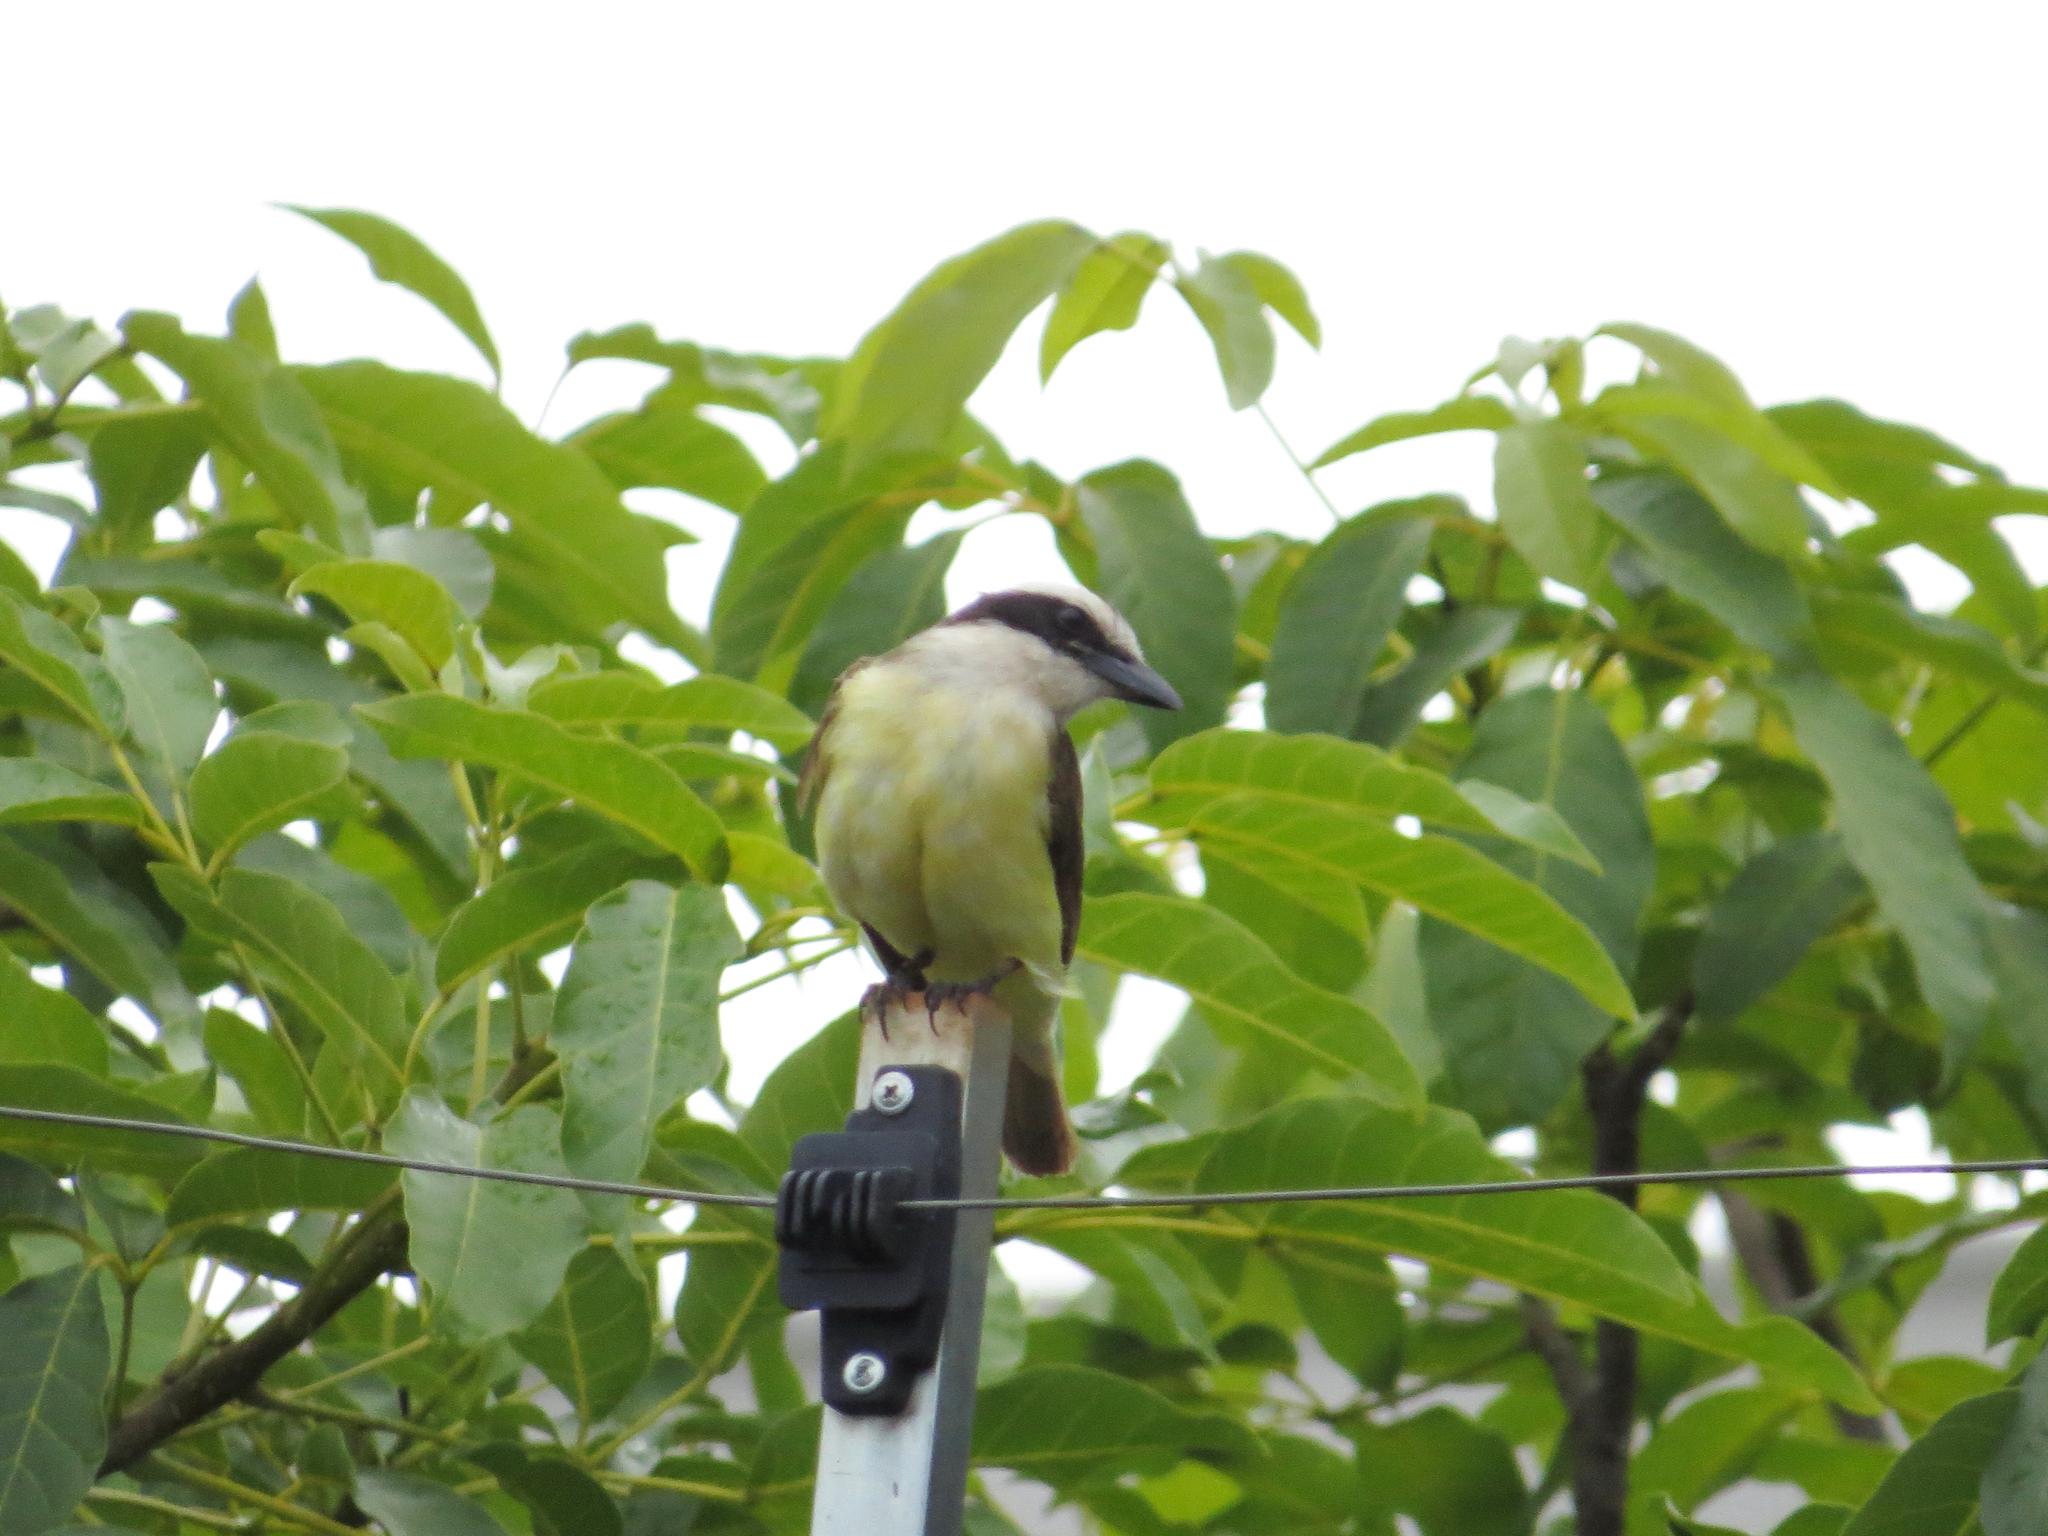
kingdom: Animalia
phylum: Chordata
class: Aves
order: Passeriformes
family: Tyrannidae
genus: Pitangus
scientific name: Pitangus sulphuratus
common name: Great kiskadee
